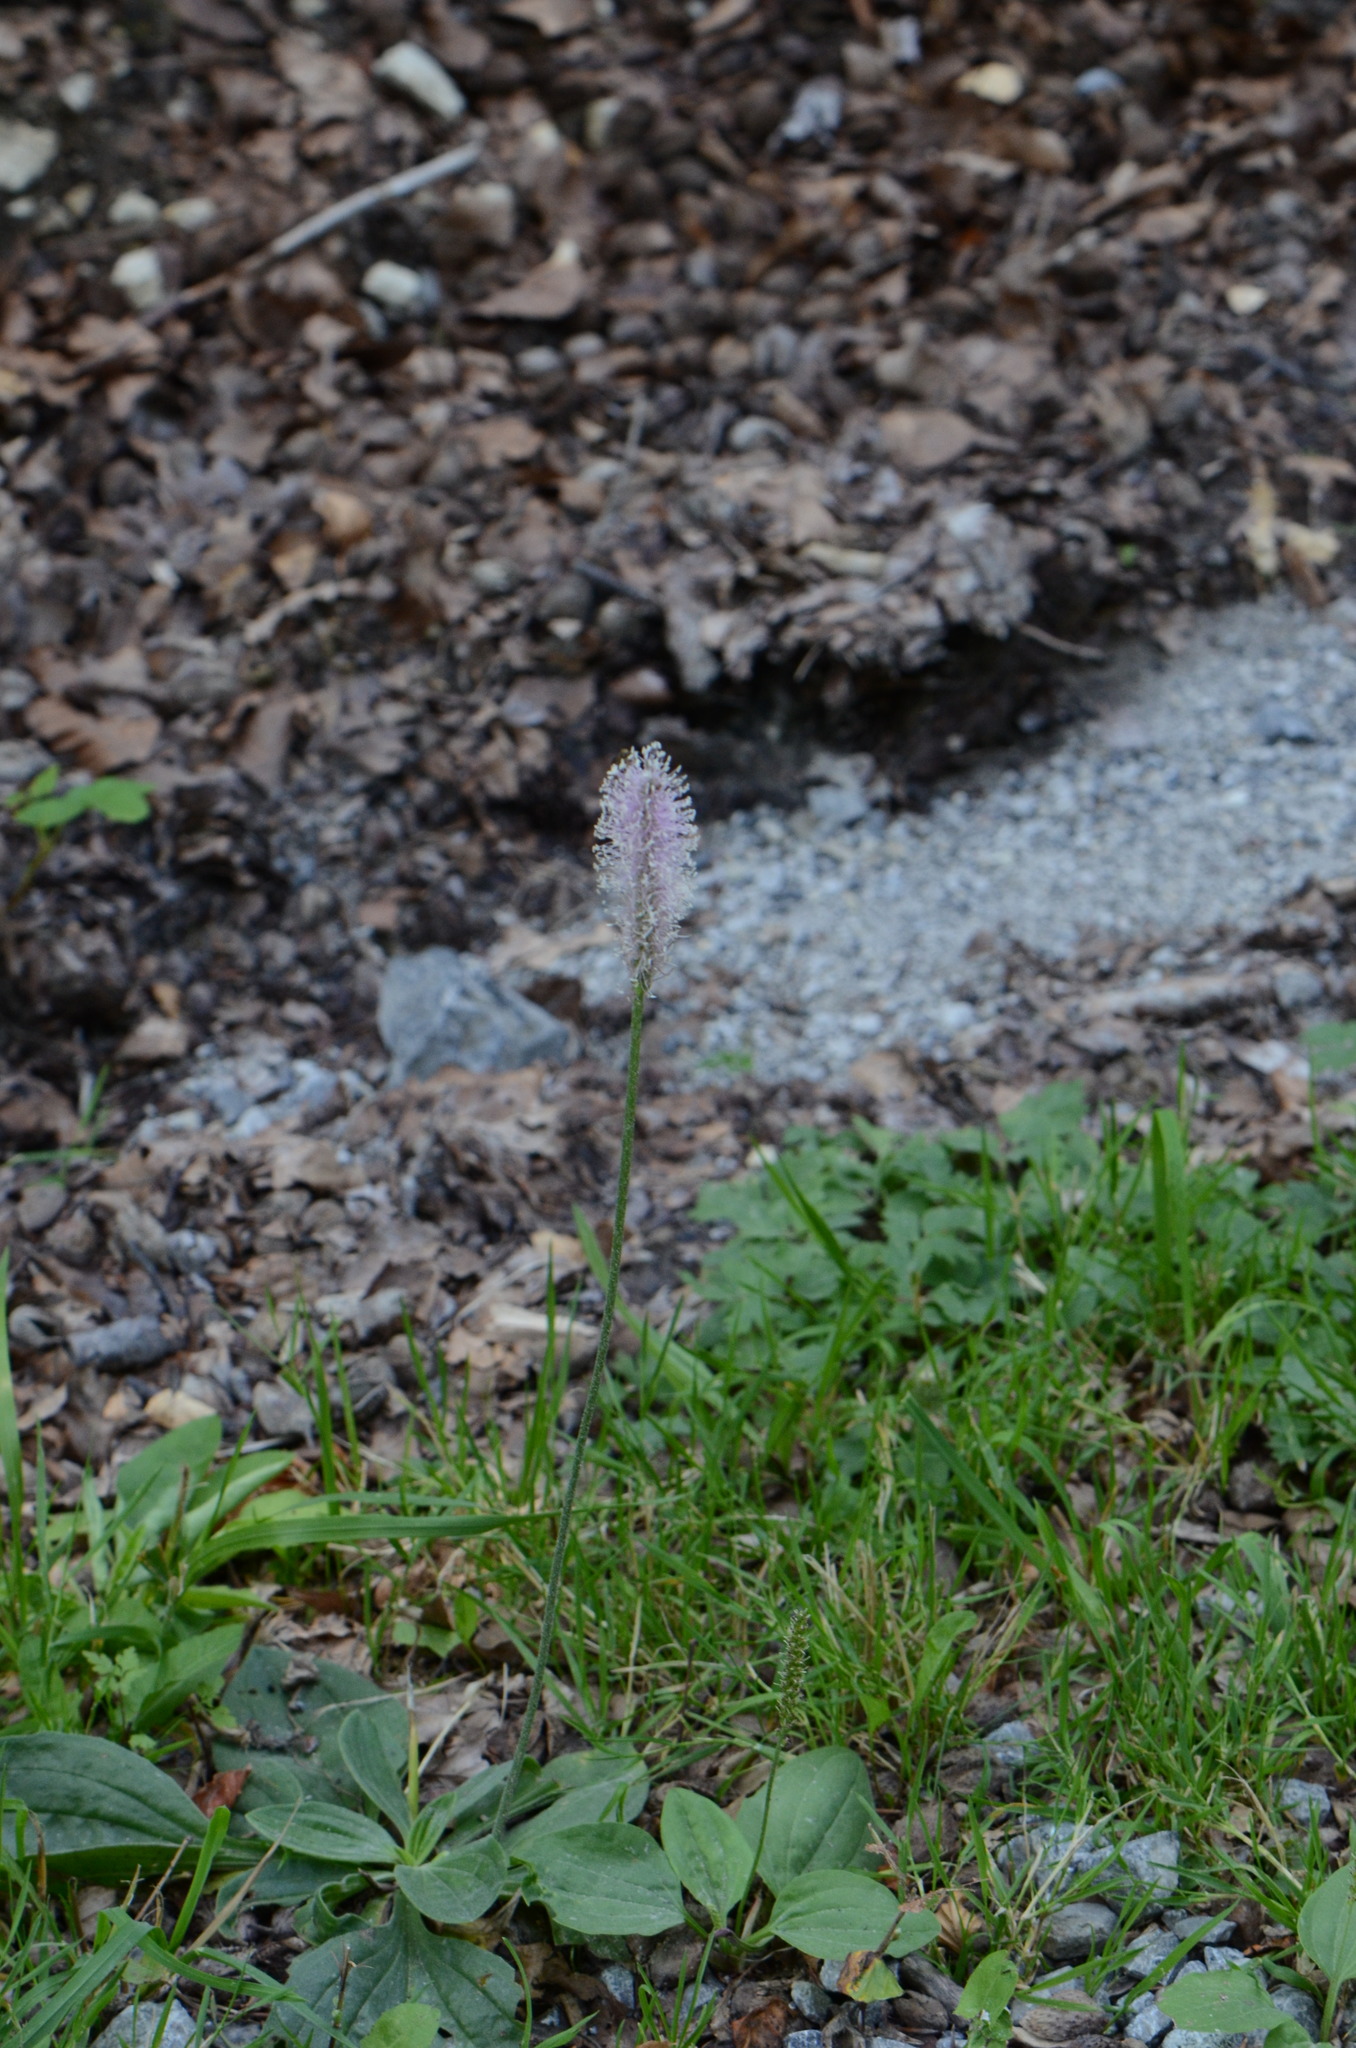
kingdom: Plantae
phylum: Tracheophyta
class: Magnoliopsida
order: Lamiales
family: Plantaginaceae
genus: Plantago
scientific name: Plantago media
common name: Hoary plantain
